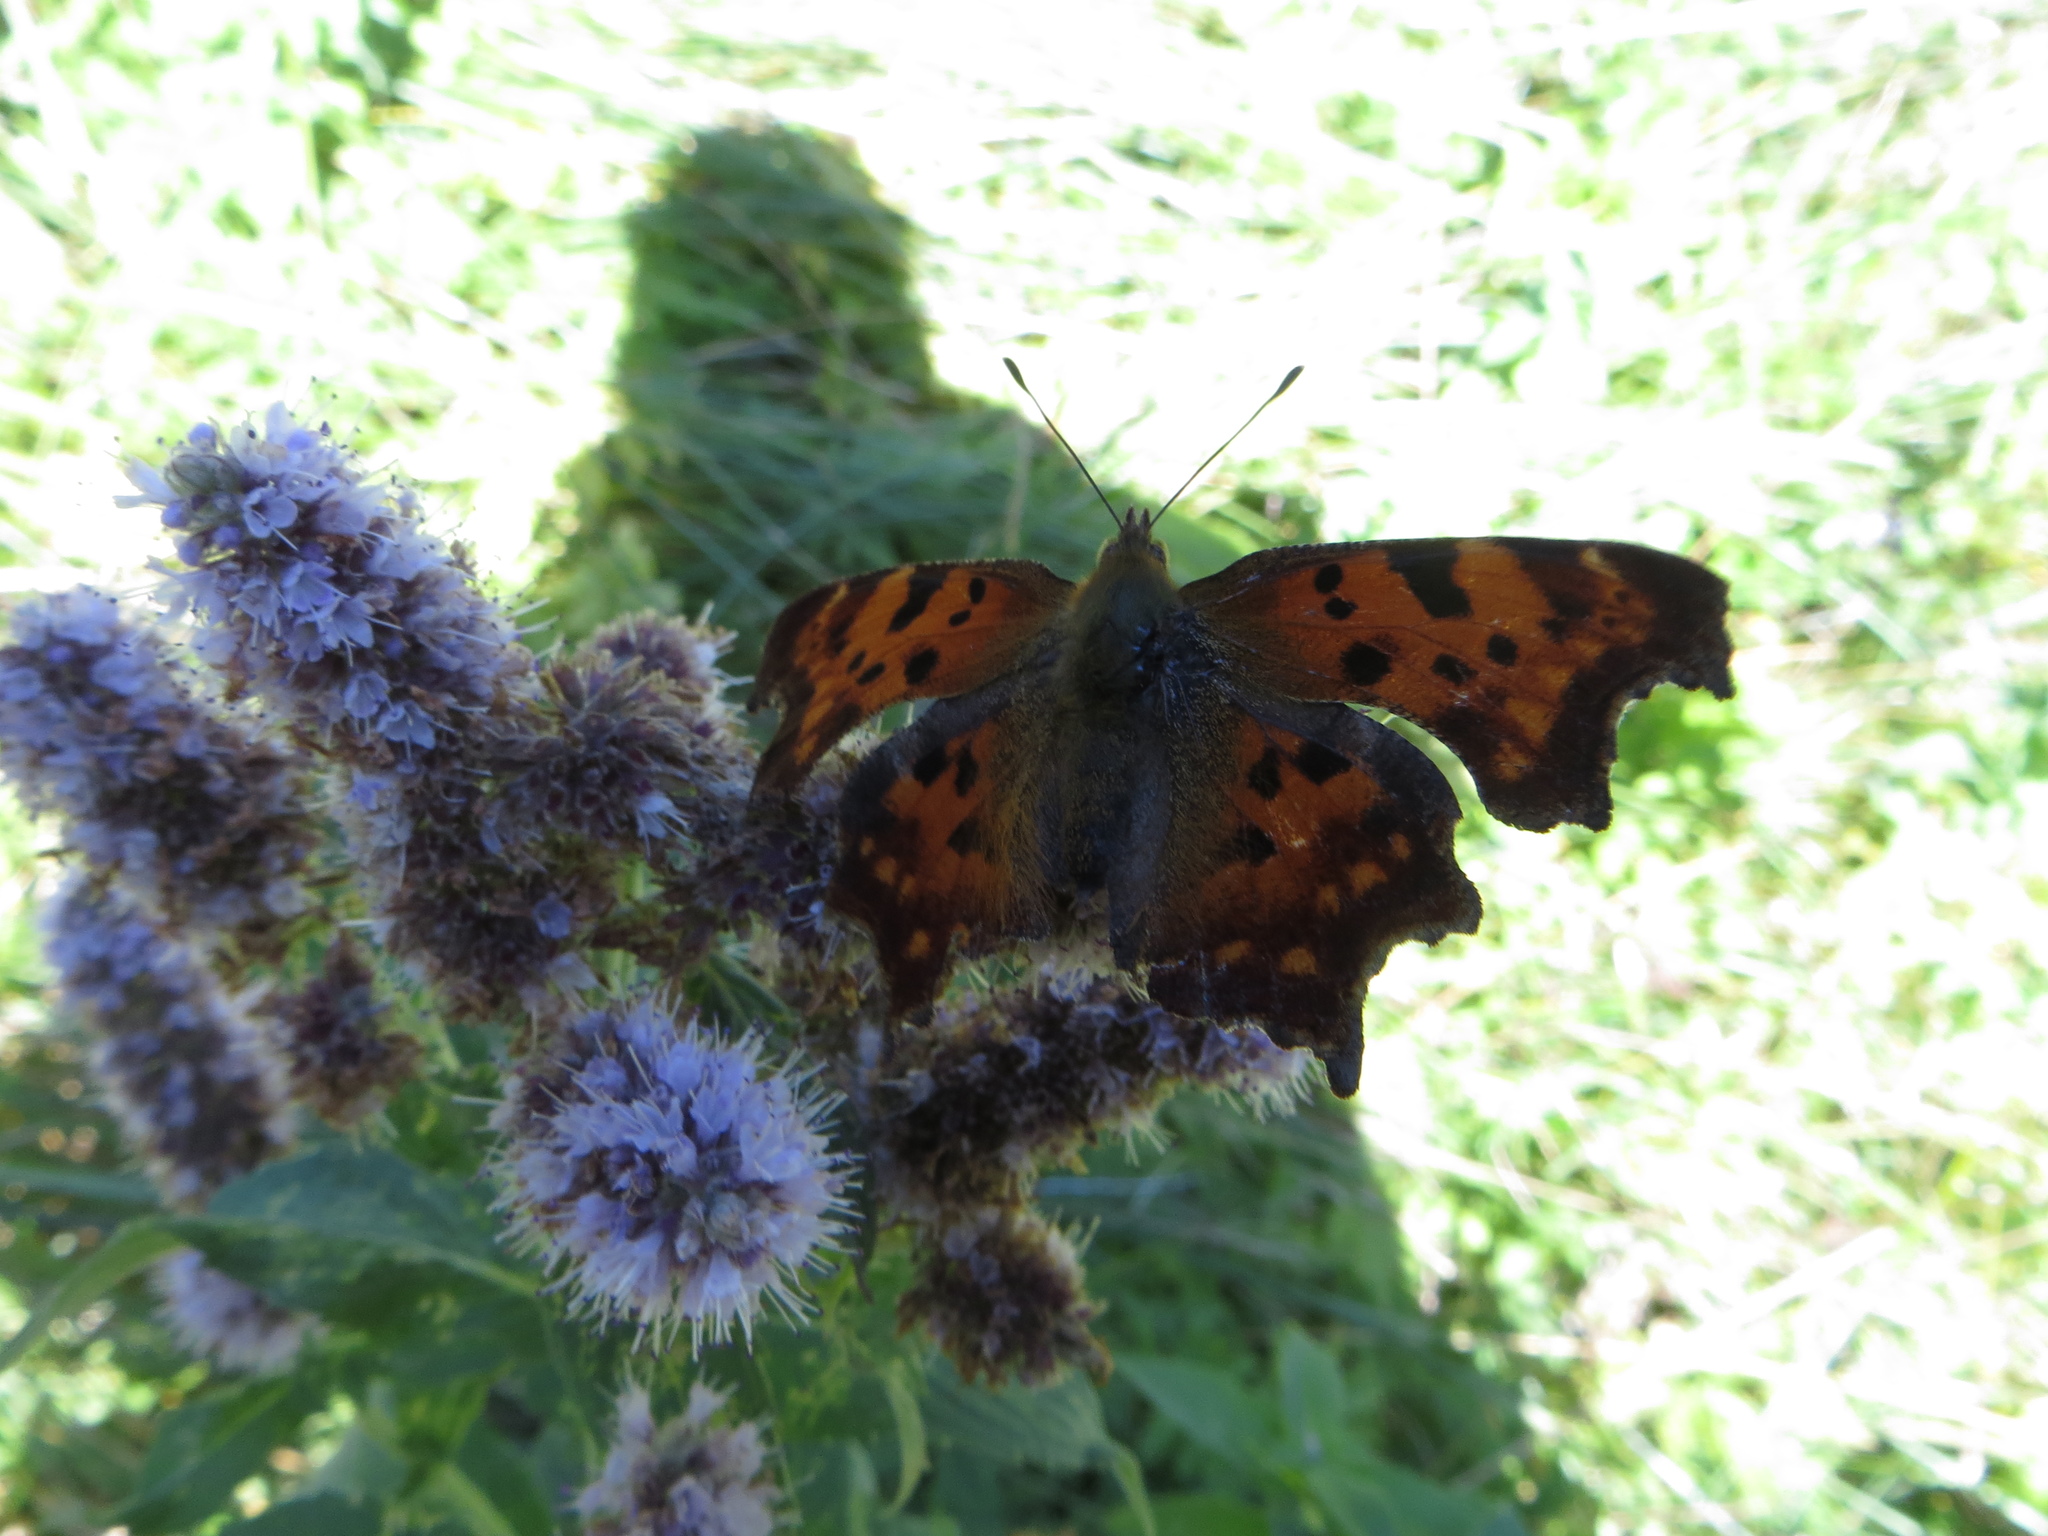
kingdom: Animalia
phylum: Arthropoda
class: Insecta
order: Lepidoptera
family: Nymphalidae
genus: Polygonia
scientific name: Polygonia c-album
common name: Comma
